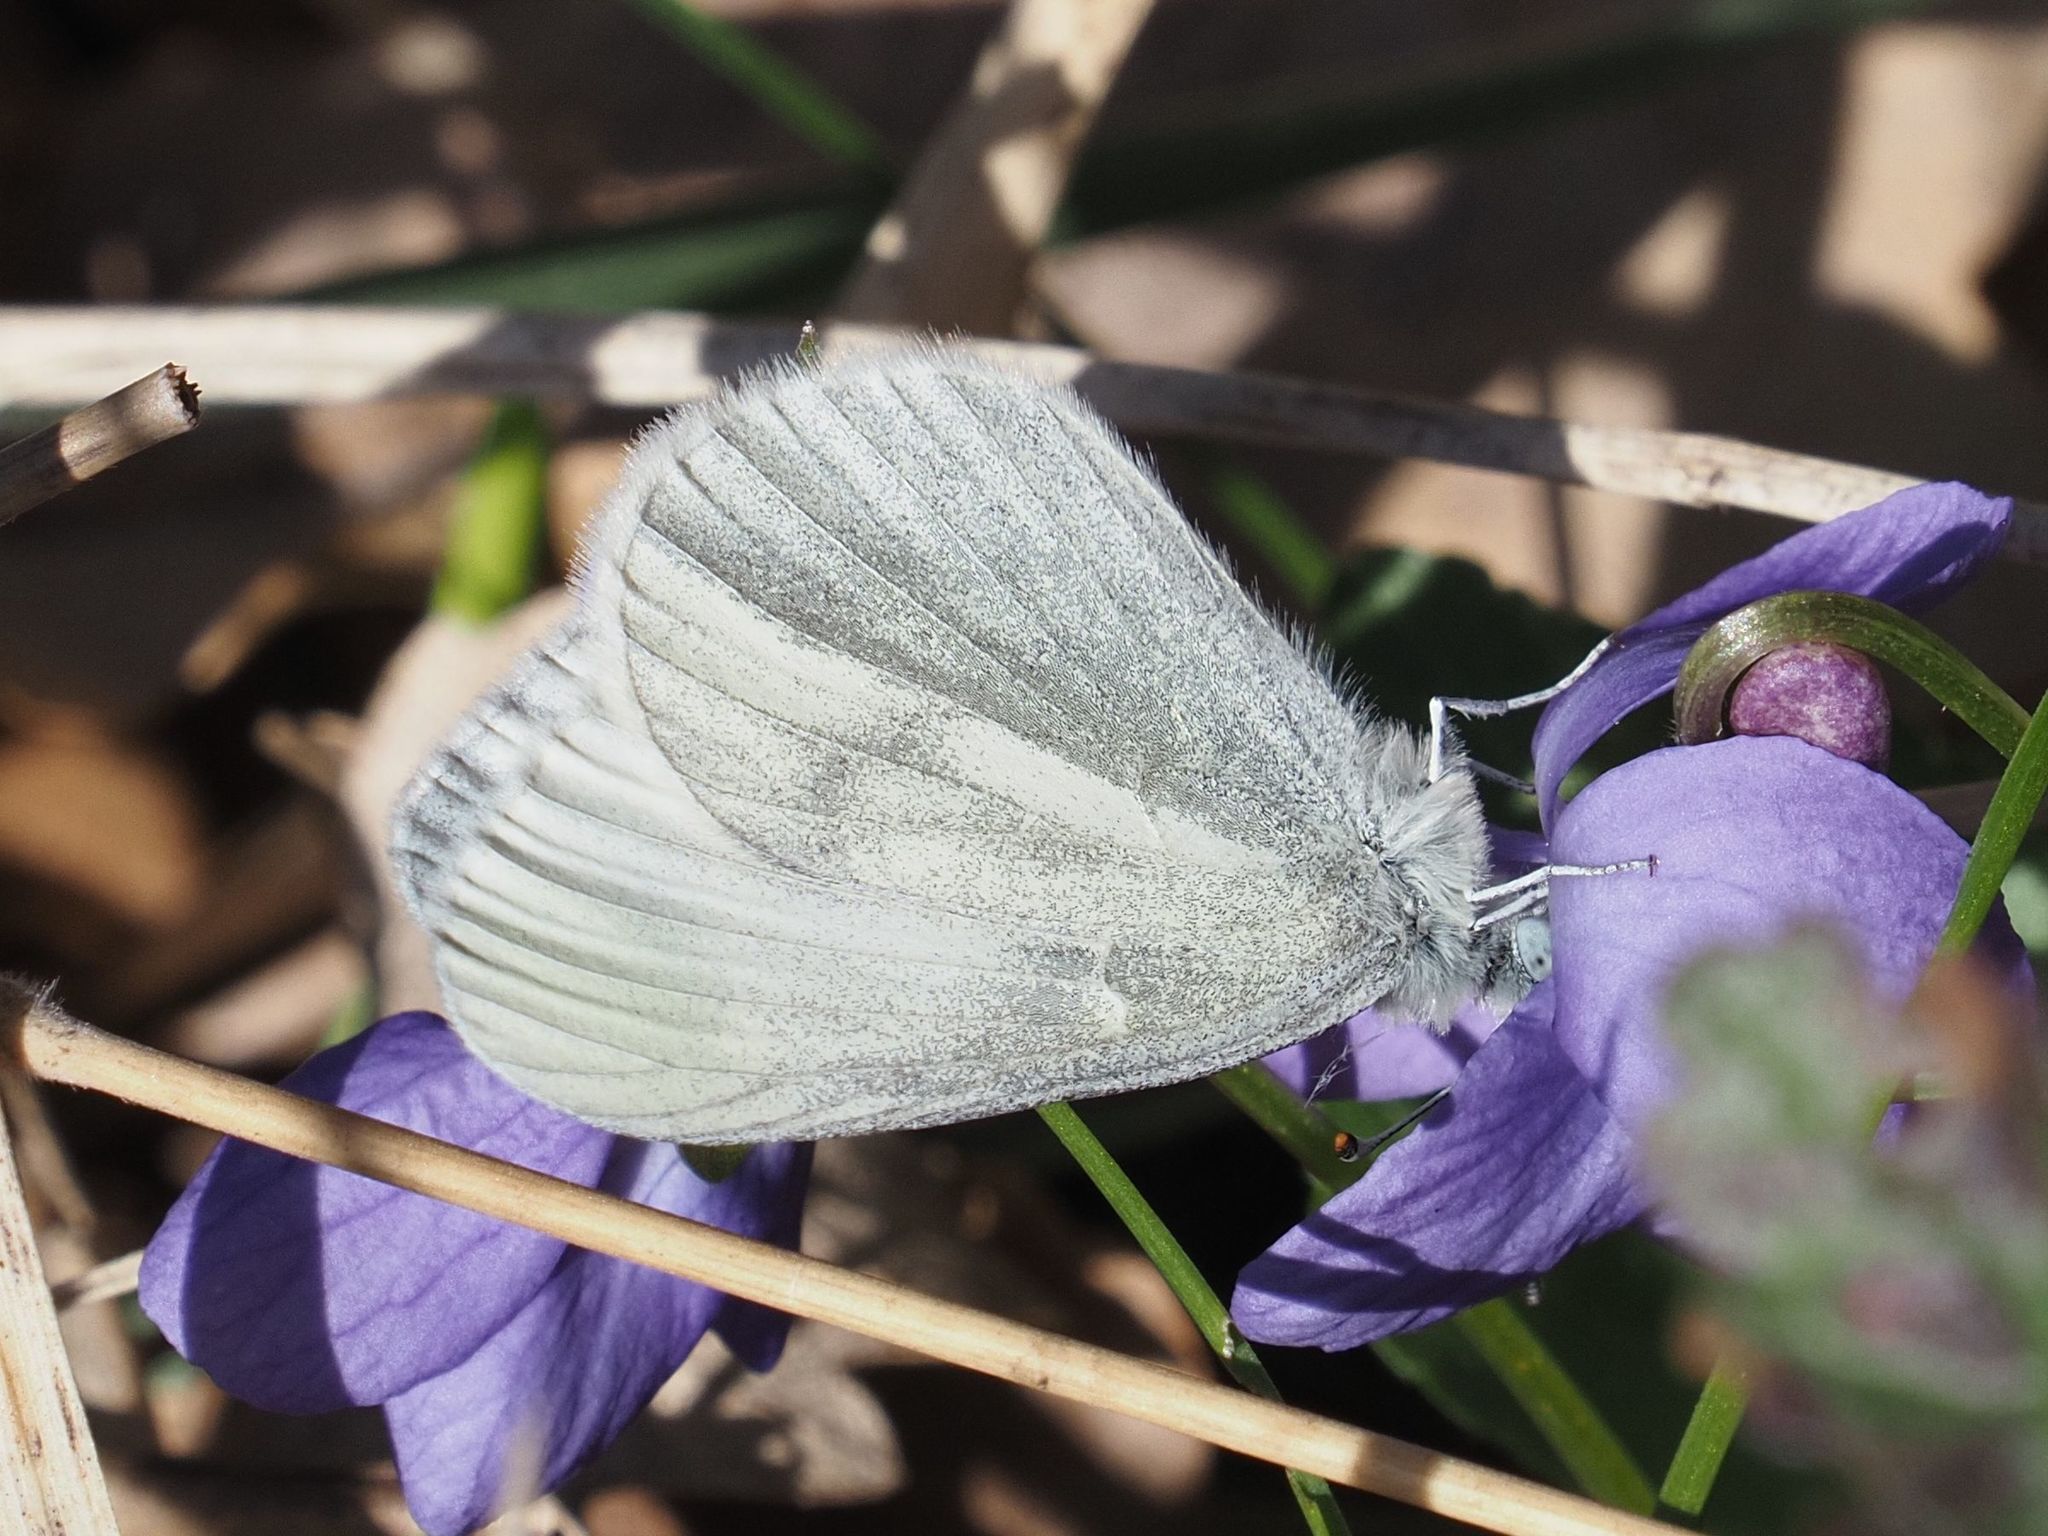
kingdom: Animalia
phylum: Arthropoda
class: Insecta
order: Lepidoptera
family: Pieridae
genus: Leptidea
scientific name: Leptidea
